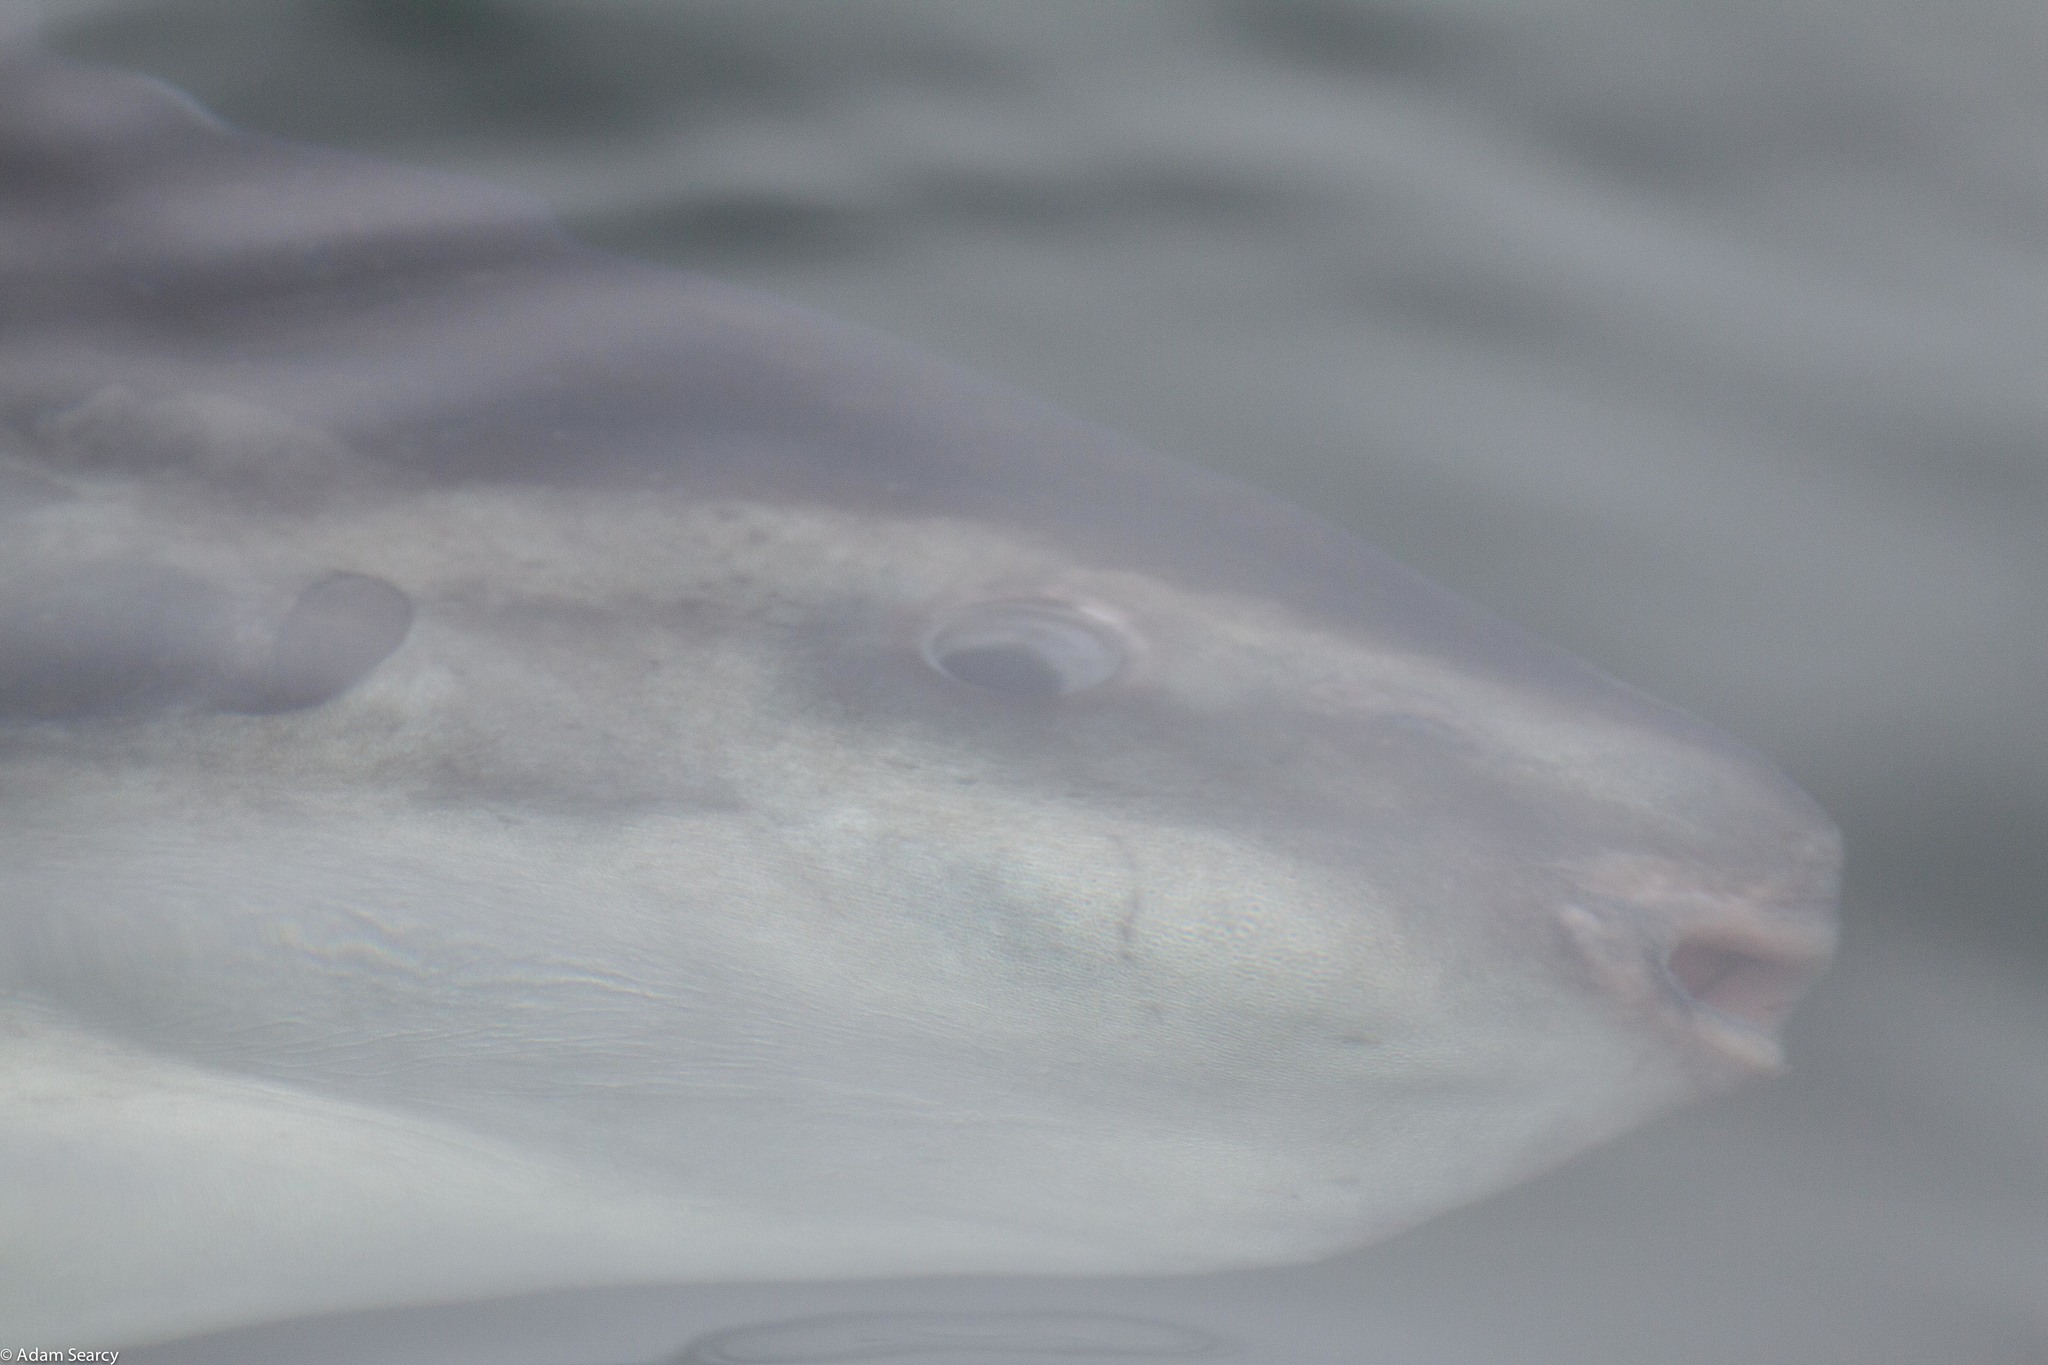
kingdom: Animalia
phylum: Chordata
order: Tetraodontiformes
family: Molidae
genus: Mola
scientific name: Mola mola
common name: Ocean sunfish
